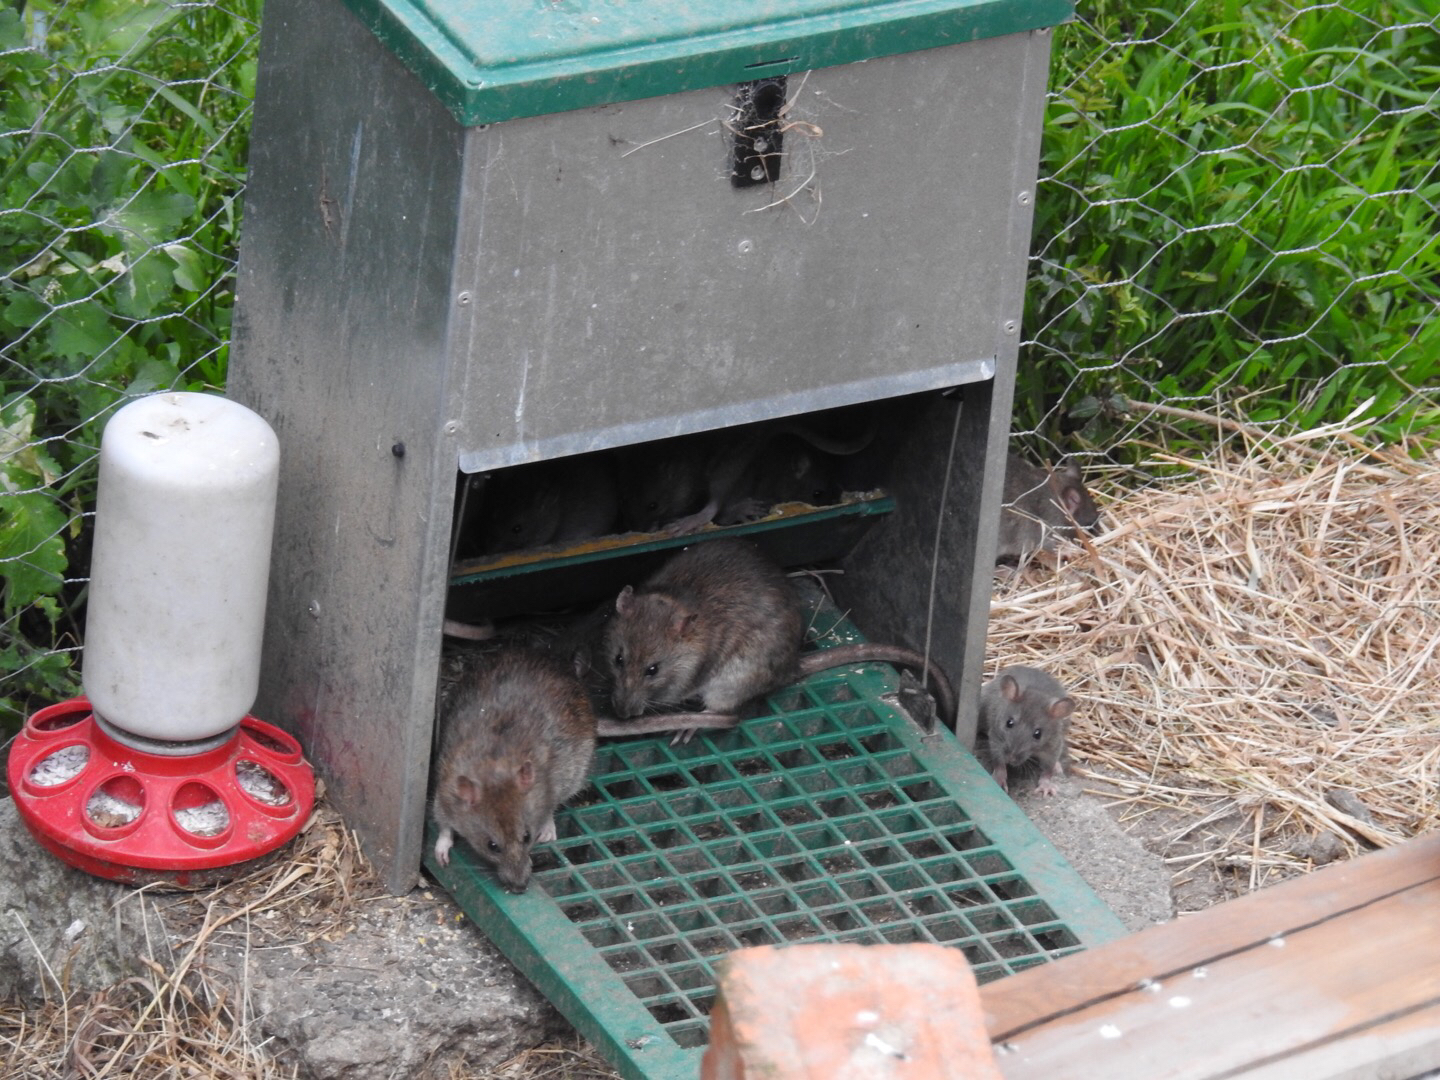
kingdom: Animalia
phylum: Chordata
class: Mammalia
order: Rodentia
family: Muridae
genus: Rattus
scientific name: Rattus norvegicus
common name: Brown rat
